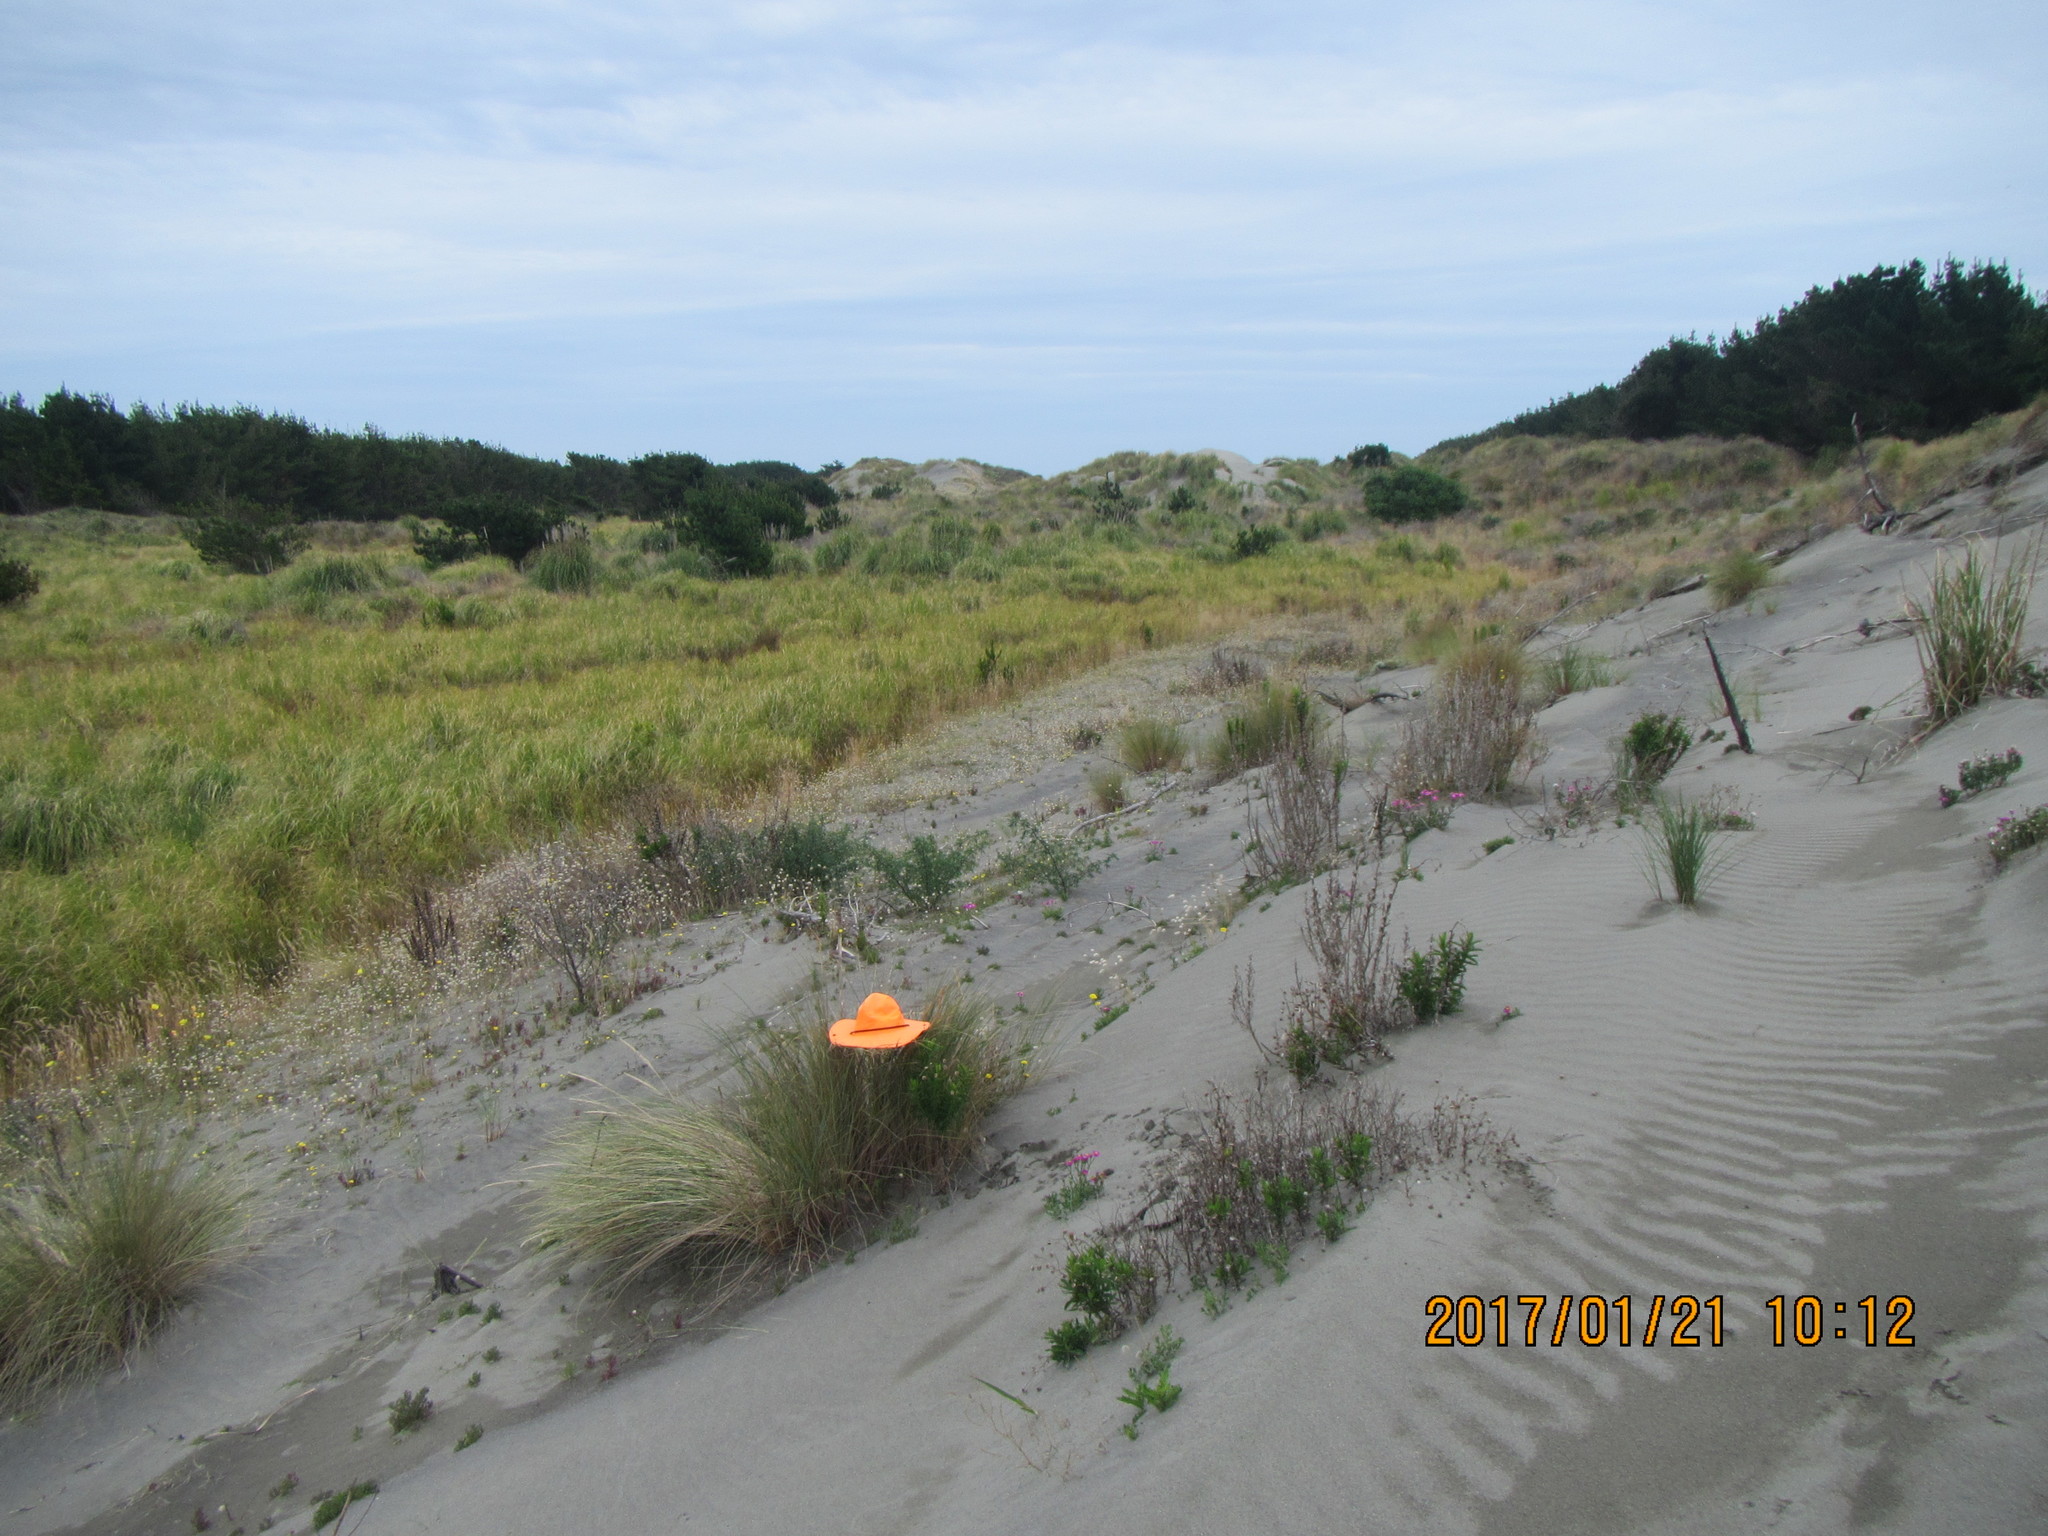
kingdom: Animalia
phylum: Arthropoda
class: Insecta
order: Hemiptera
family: Flatidae
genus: Anzora
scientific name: Anzora unicolor
